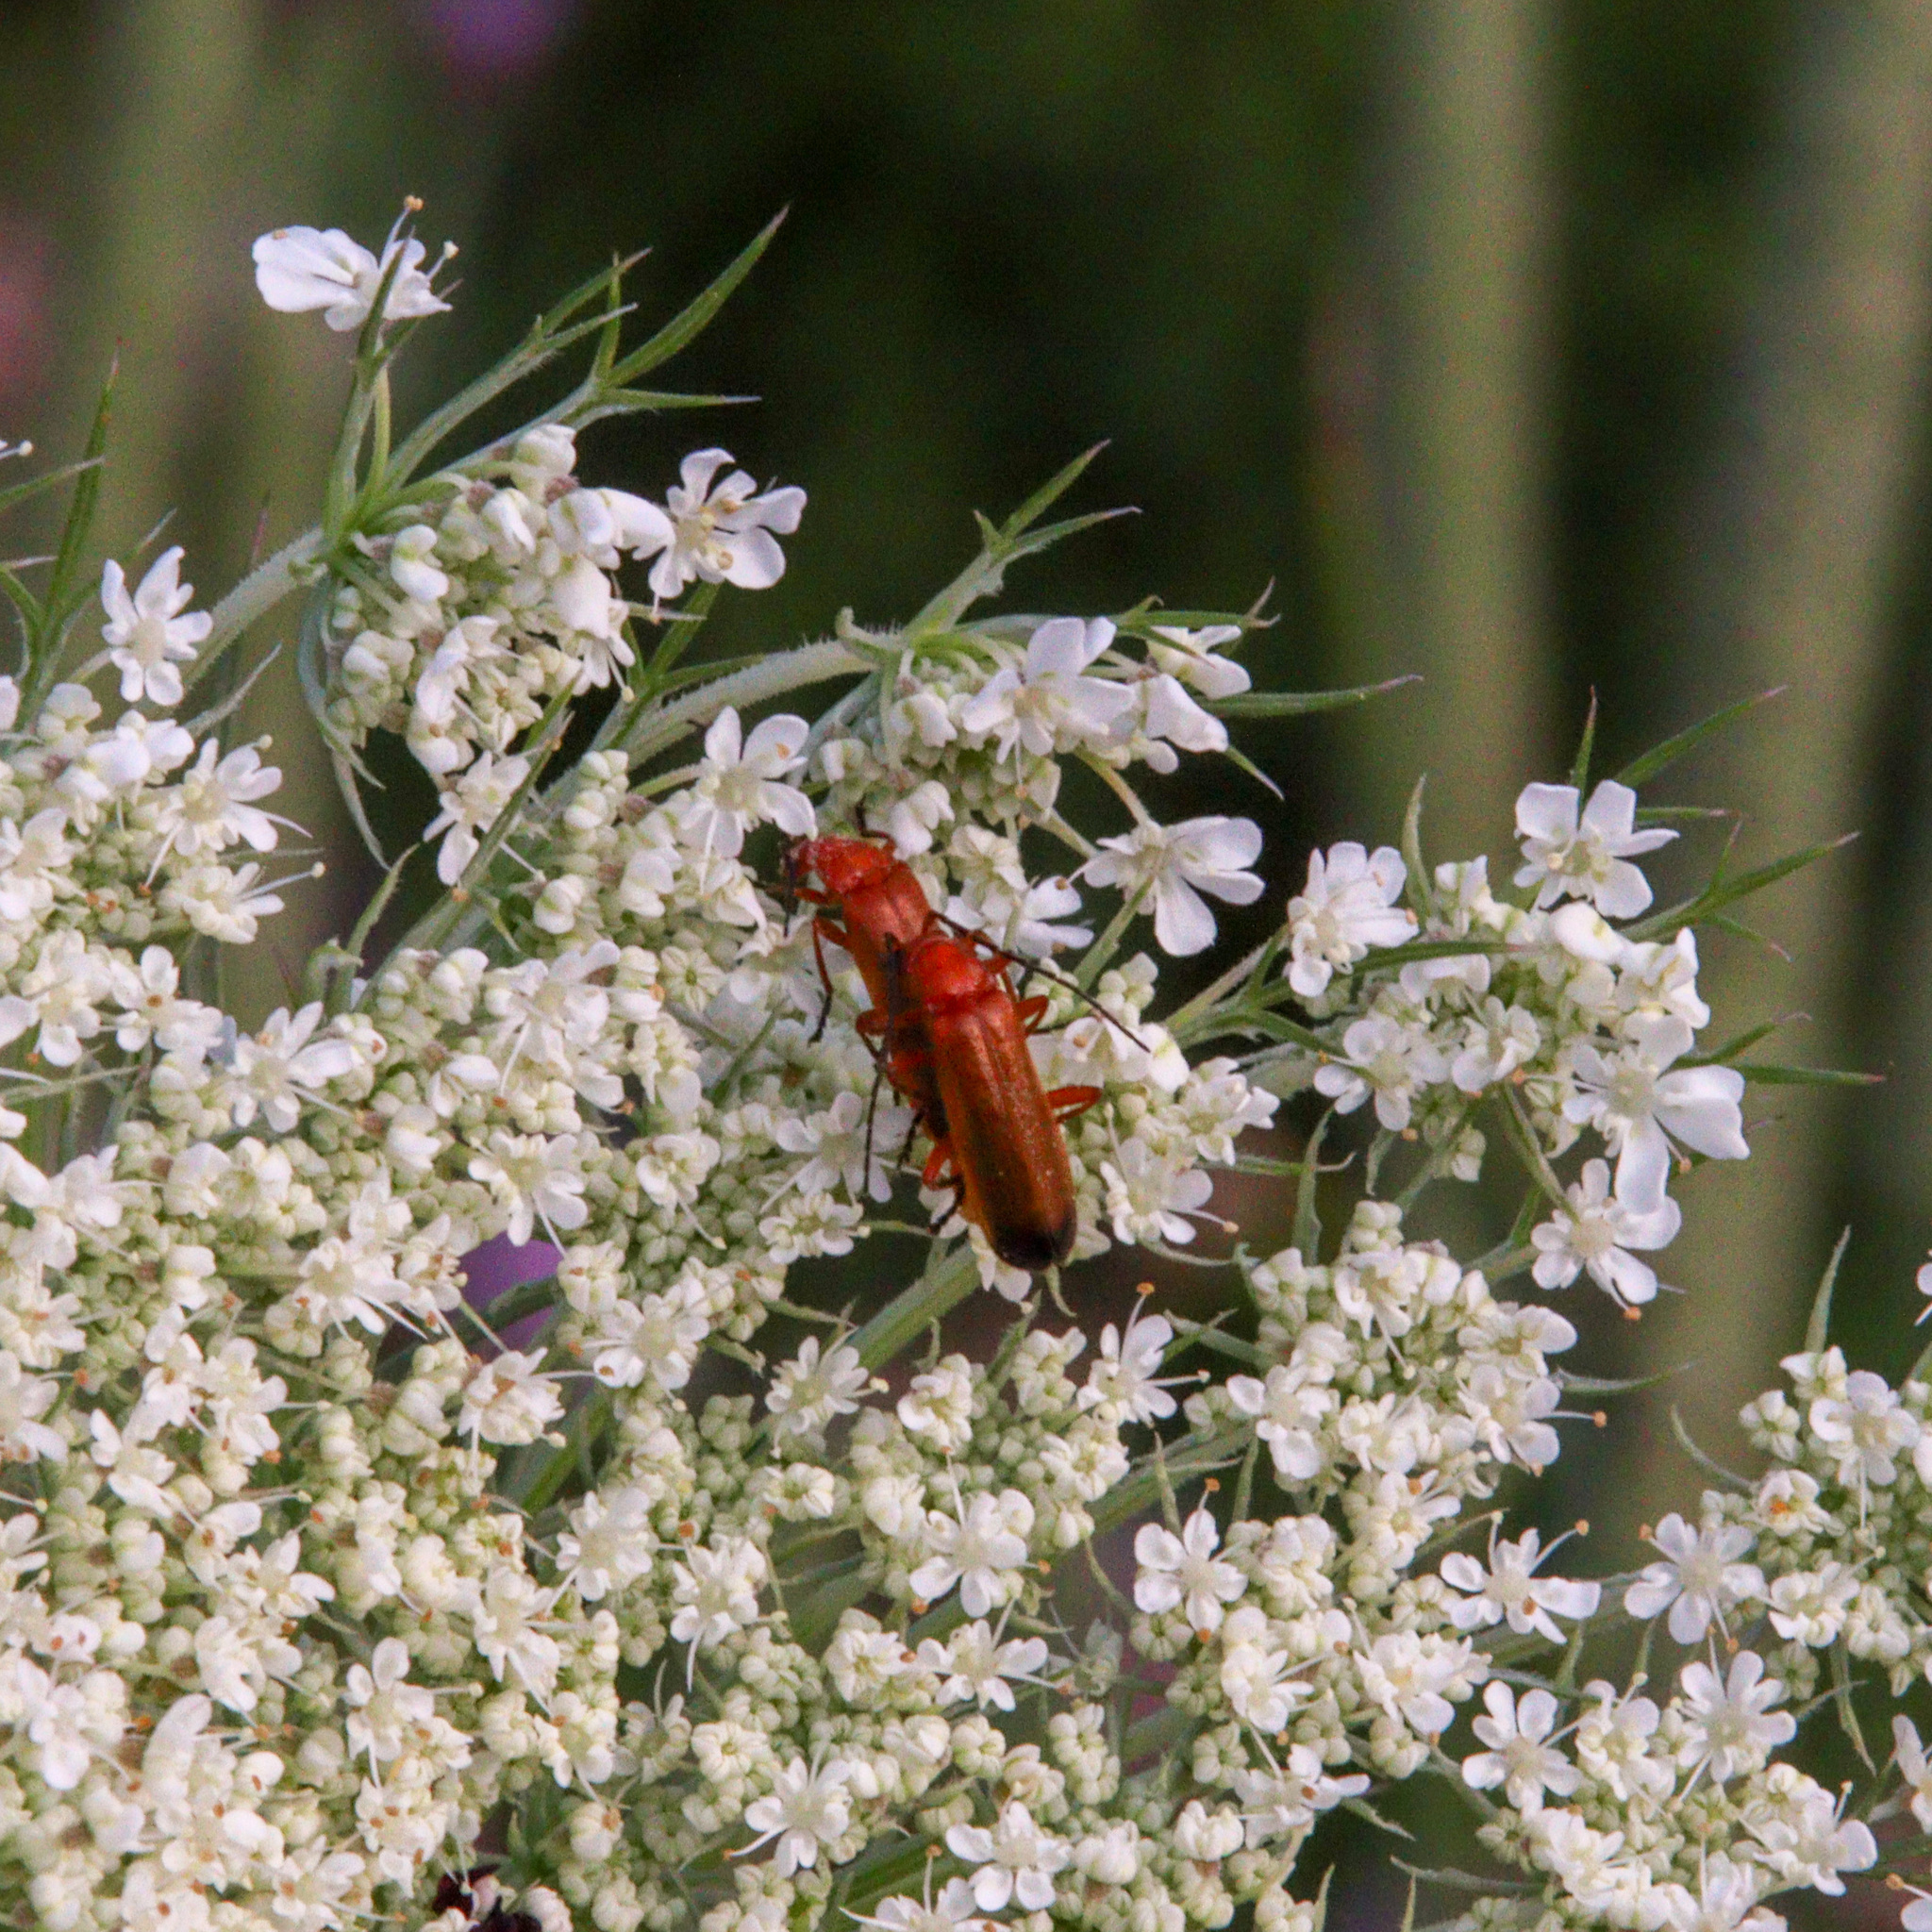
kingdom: Animalia
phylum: Arthropoda
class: Insecta
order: Coleoptera
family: Cantharidae
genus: Rhagonycha
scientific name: Rhagonycha fulva
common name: Common red soldier beetle
